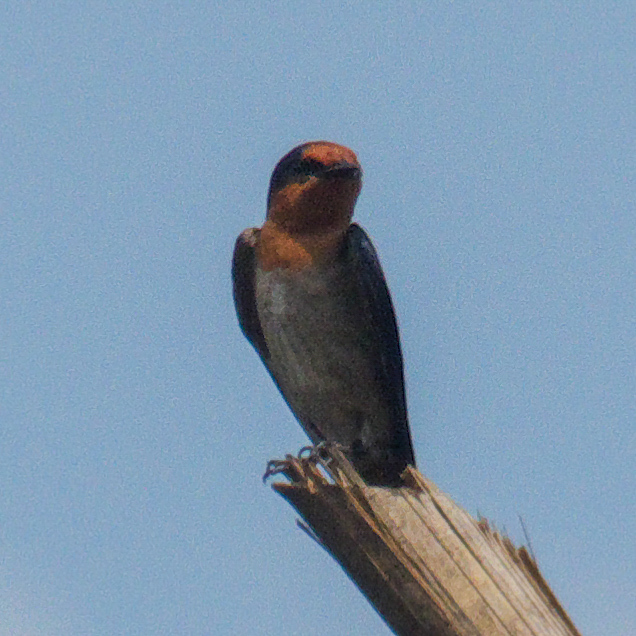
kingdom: Animalia
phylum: Chordata
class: Aves
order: Passeriformes
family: Hirundinidae
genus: Hirundo
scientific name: Hirundo tahitica
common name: Pacific swallow
